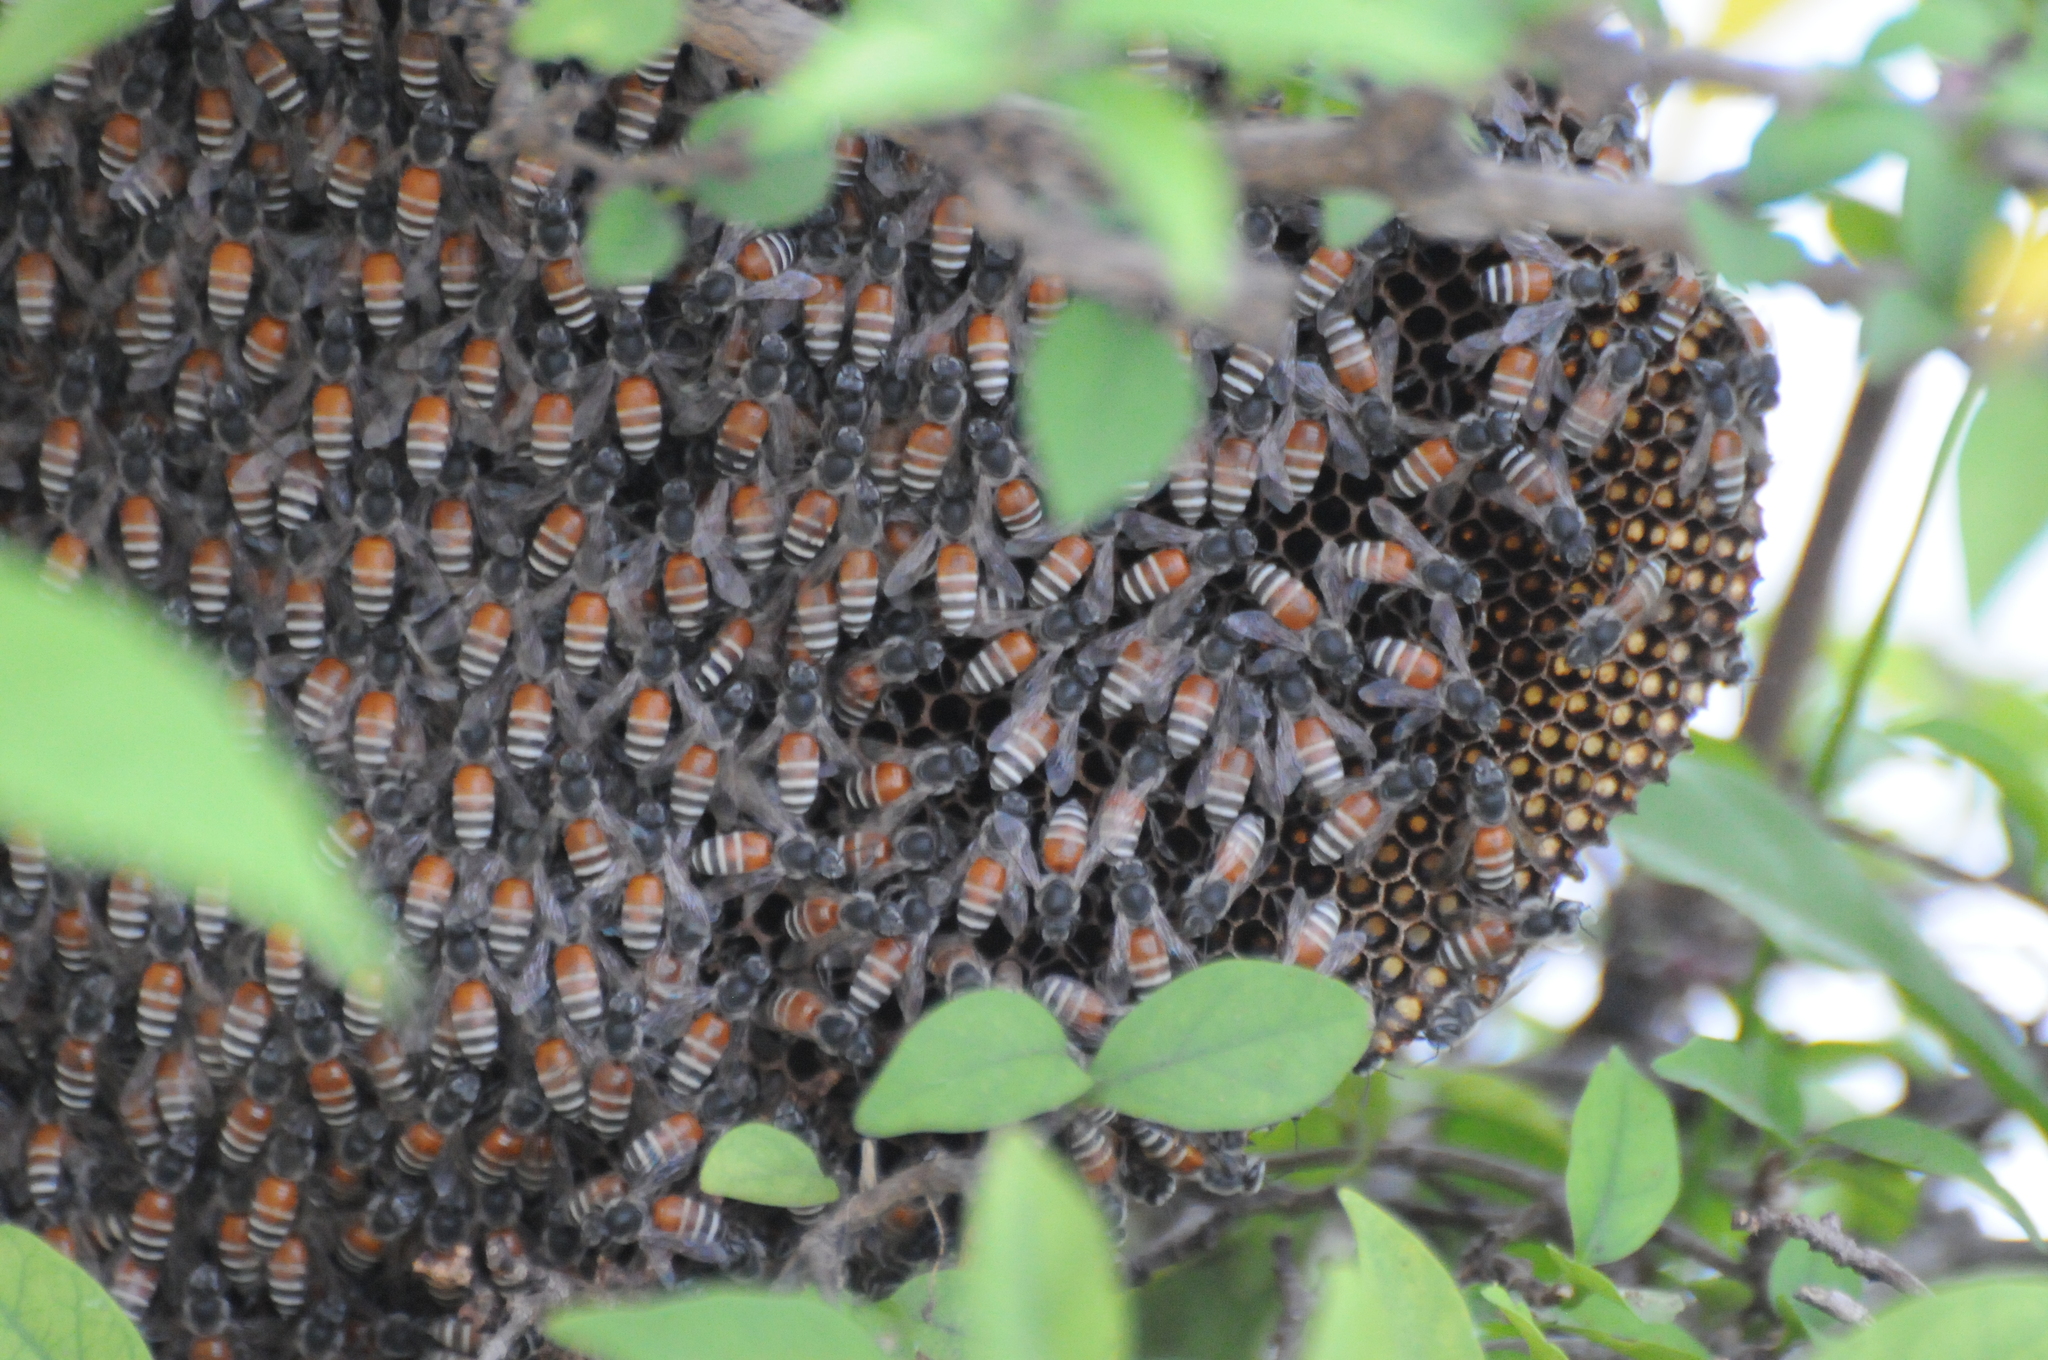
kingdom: Animalia
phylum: Arthropoda
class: Insecta
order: Hymenoptera
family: Apidae
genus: Apis
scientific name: Apis florea
